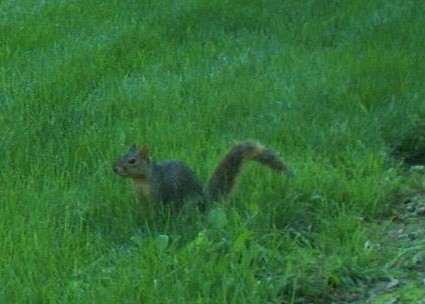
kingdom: Animalia
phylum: Chordata
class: Mammalia
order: Rodentia
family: Sciuridae
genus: Sciurus
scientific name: Sciurus niger
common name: Fox squirrel
